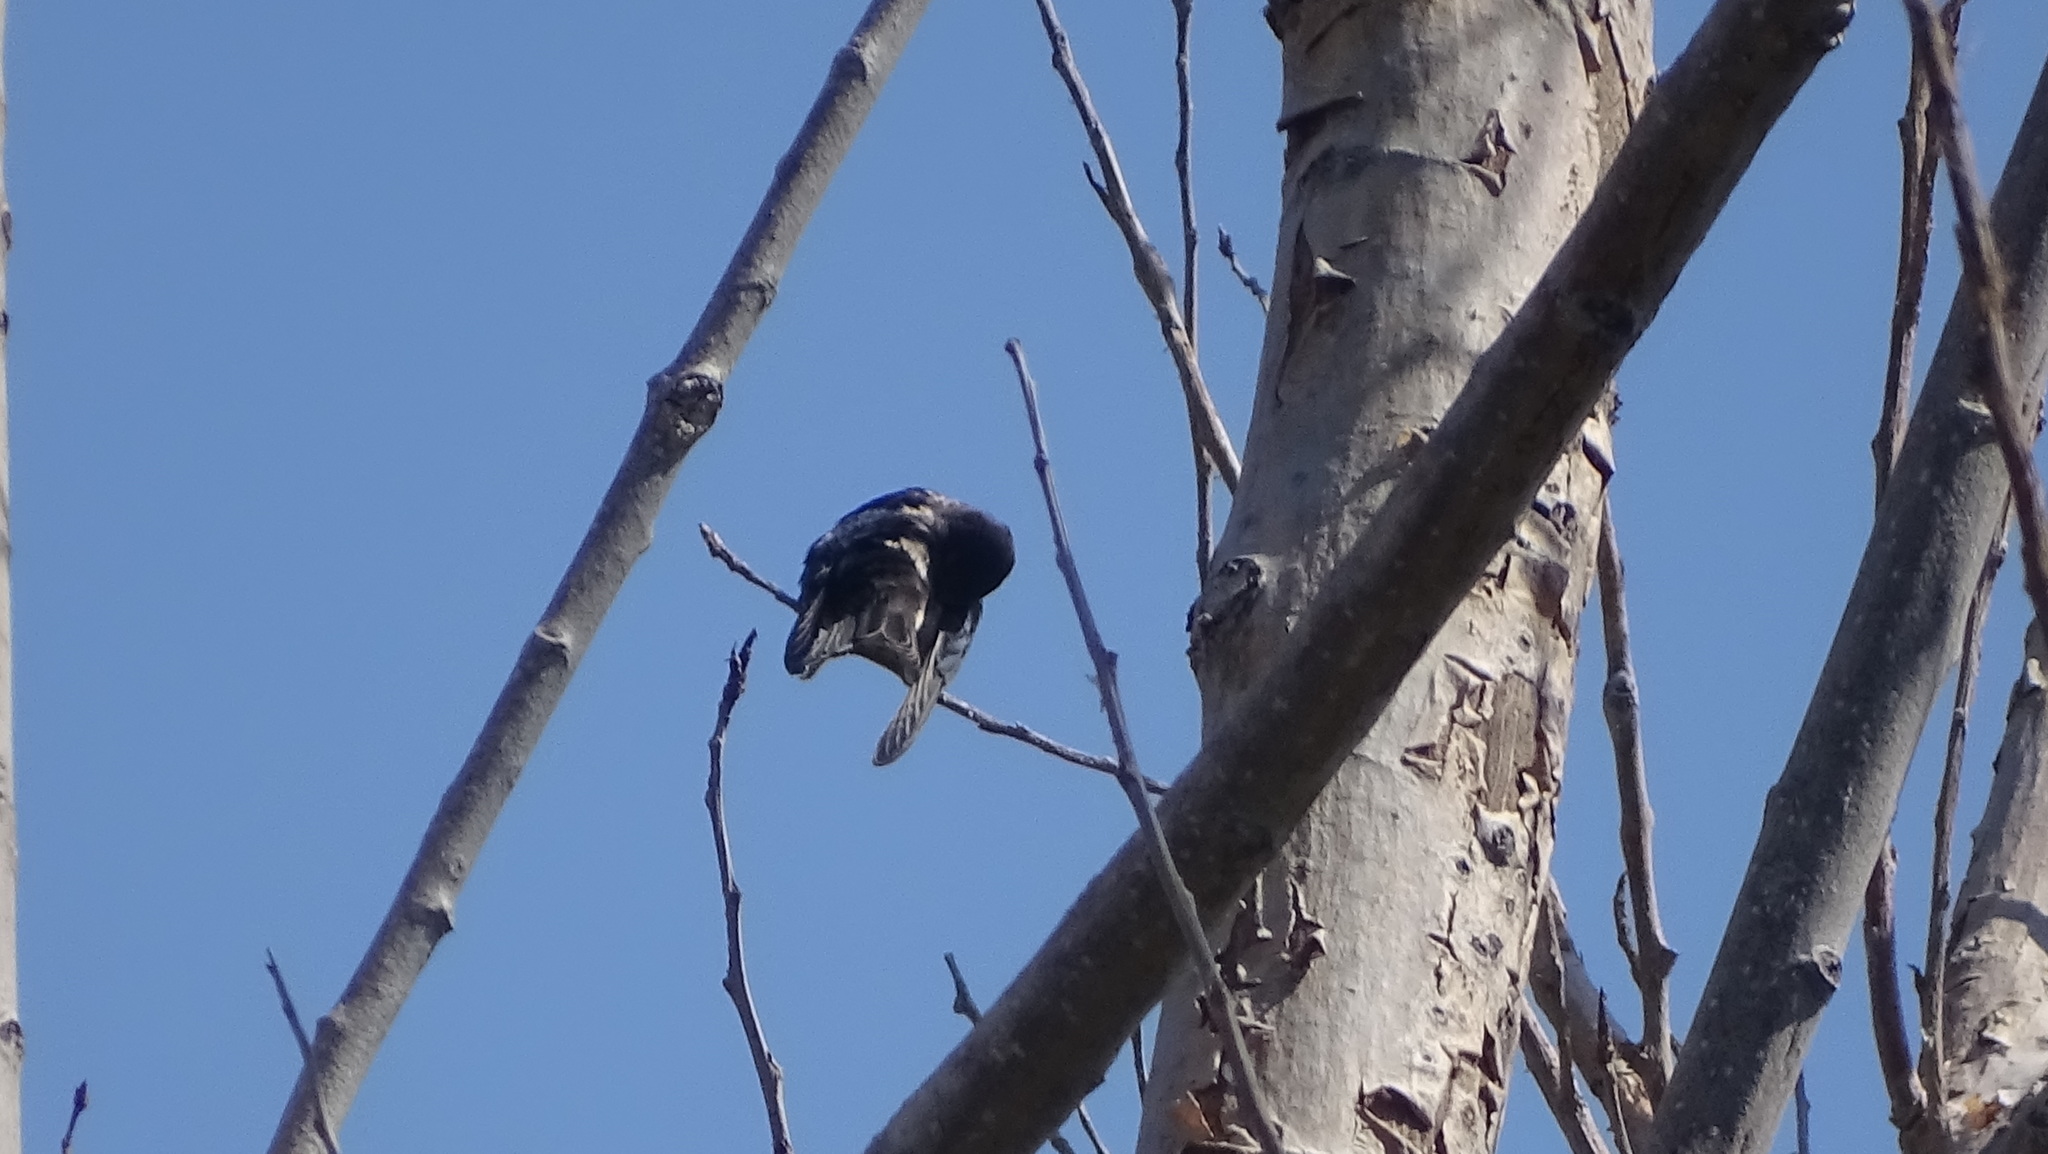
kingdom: Animalia
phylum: Chordata
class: Aves
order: Passeriformes
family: Hirundinidae
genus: Hirundo
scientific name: Hirundo rustica
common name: Barn swallow
